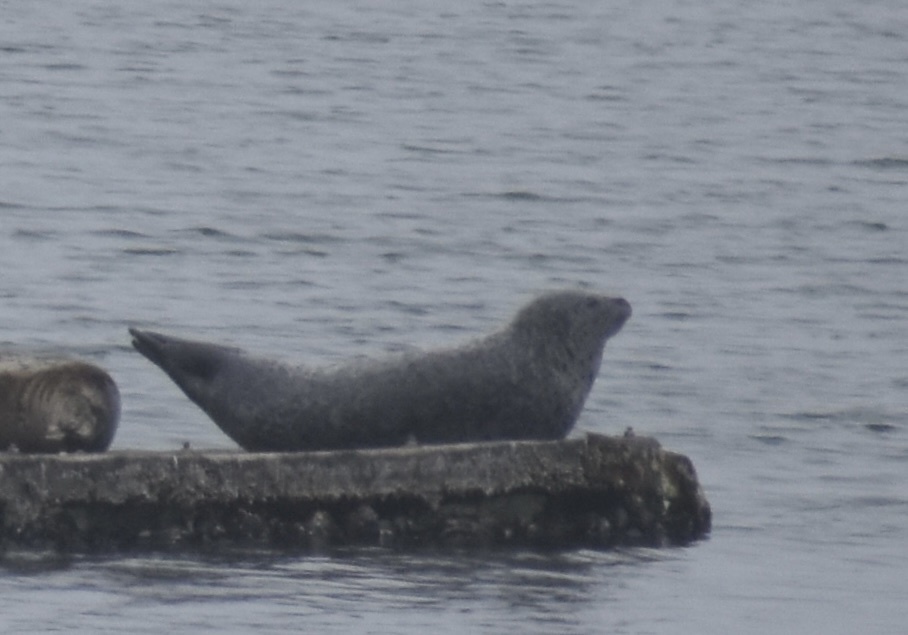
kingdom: Animalia
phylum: Chordata
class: Mammalia
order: Carnivora
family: Phocidae
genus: Phoca
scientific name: Phoca vitulina
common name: Harbor seal
